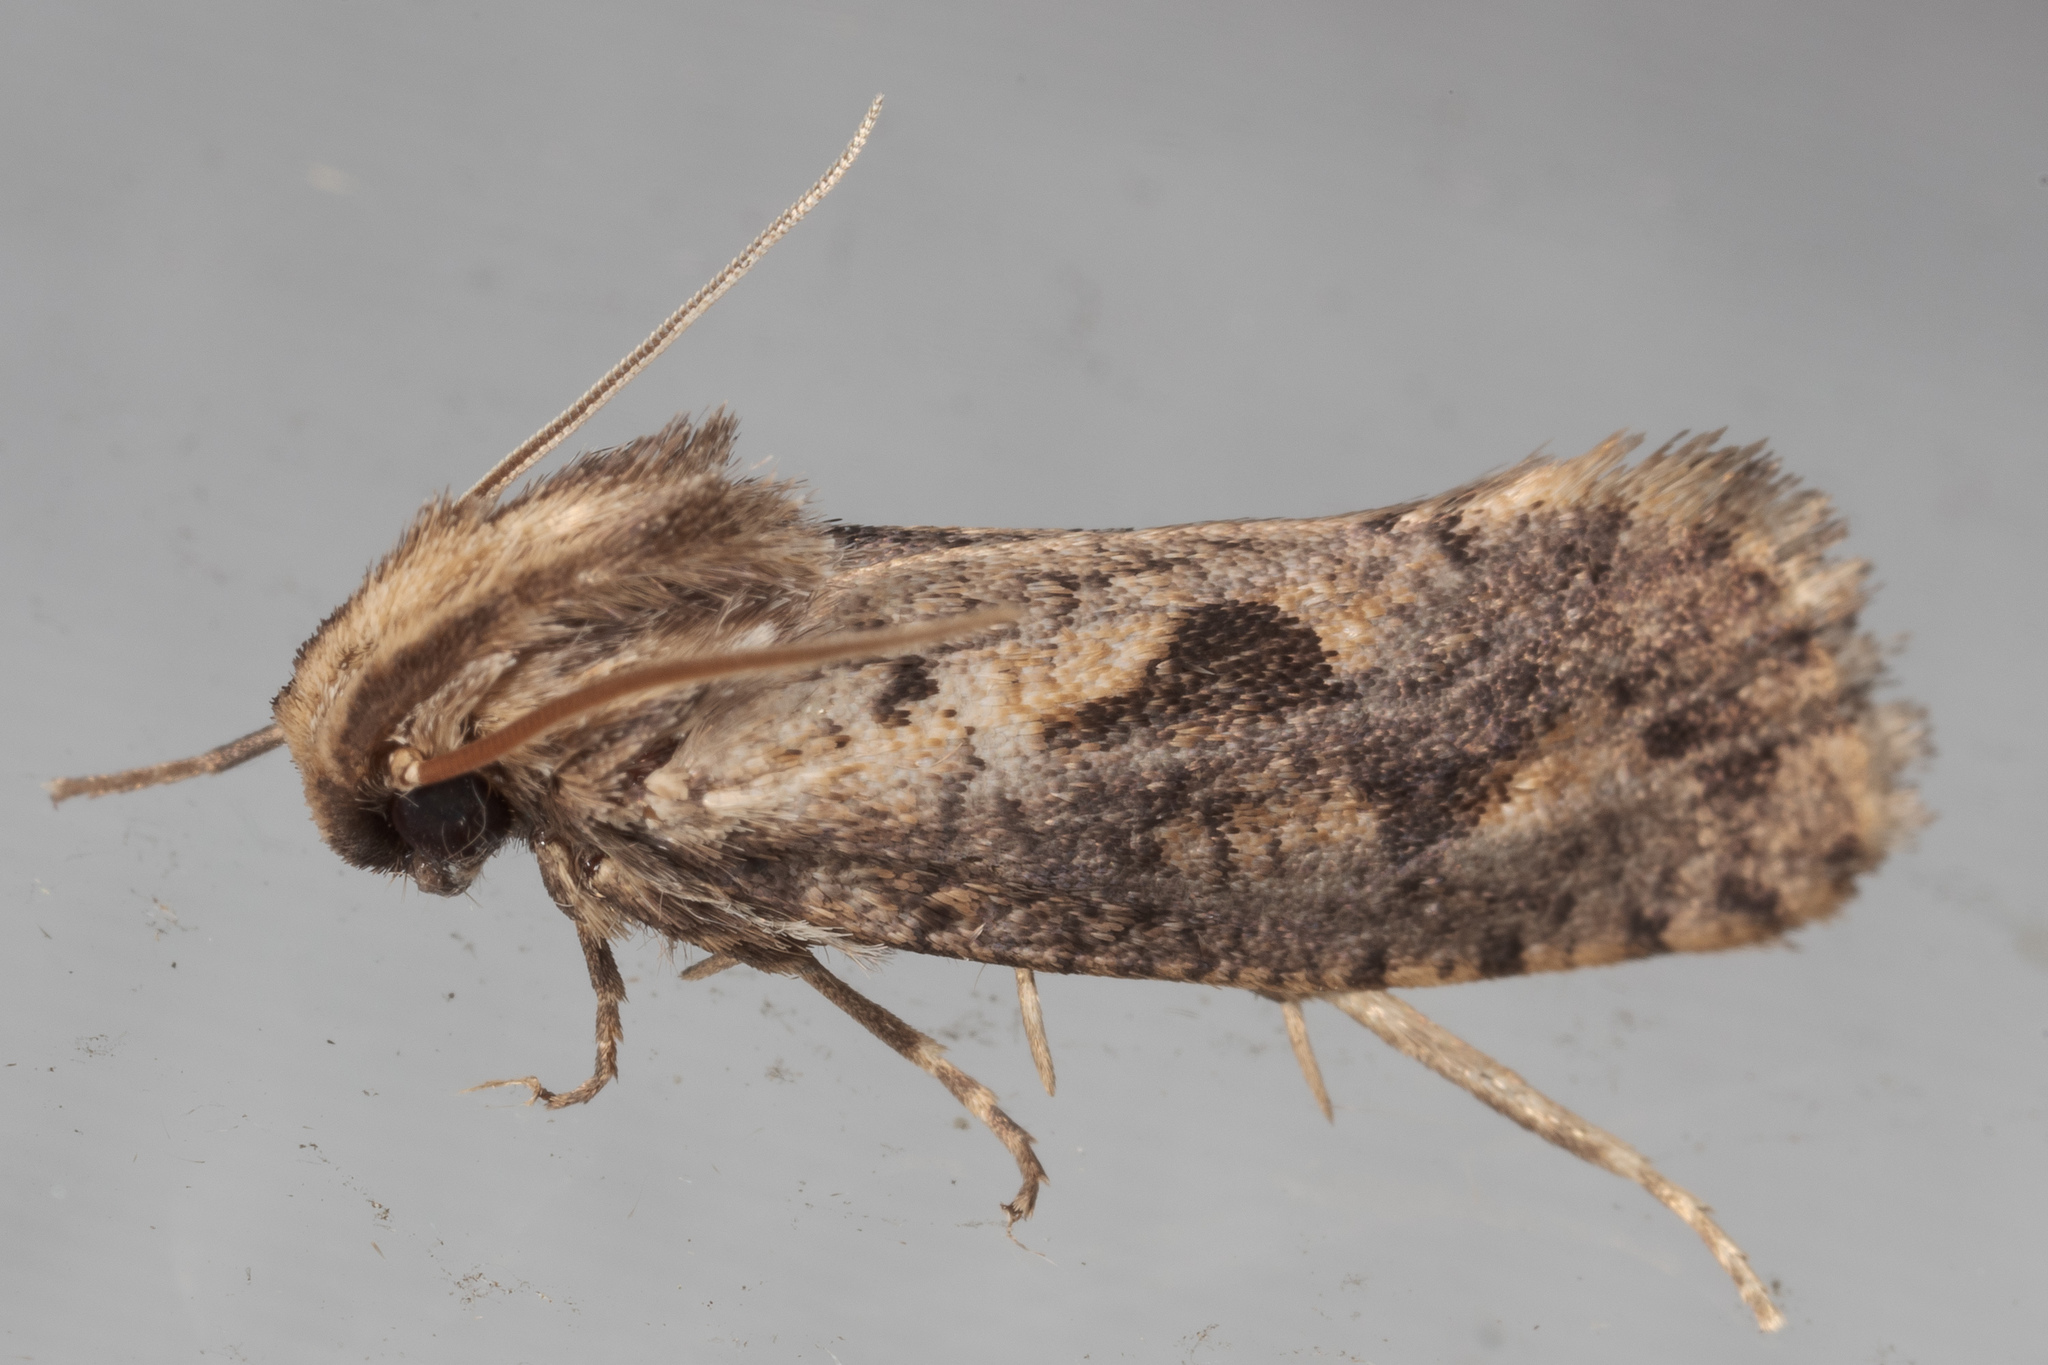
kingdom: Animalia
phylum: Arthropoda
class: Insecta
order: Lepidoptera
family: Tineidae
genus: Acrolophus
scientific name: Acrolophus popeanella
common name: Clemens' grass tubeworm moth
